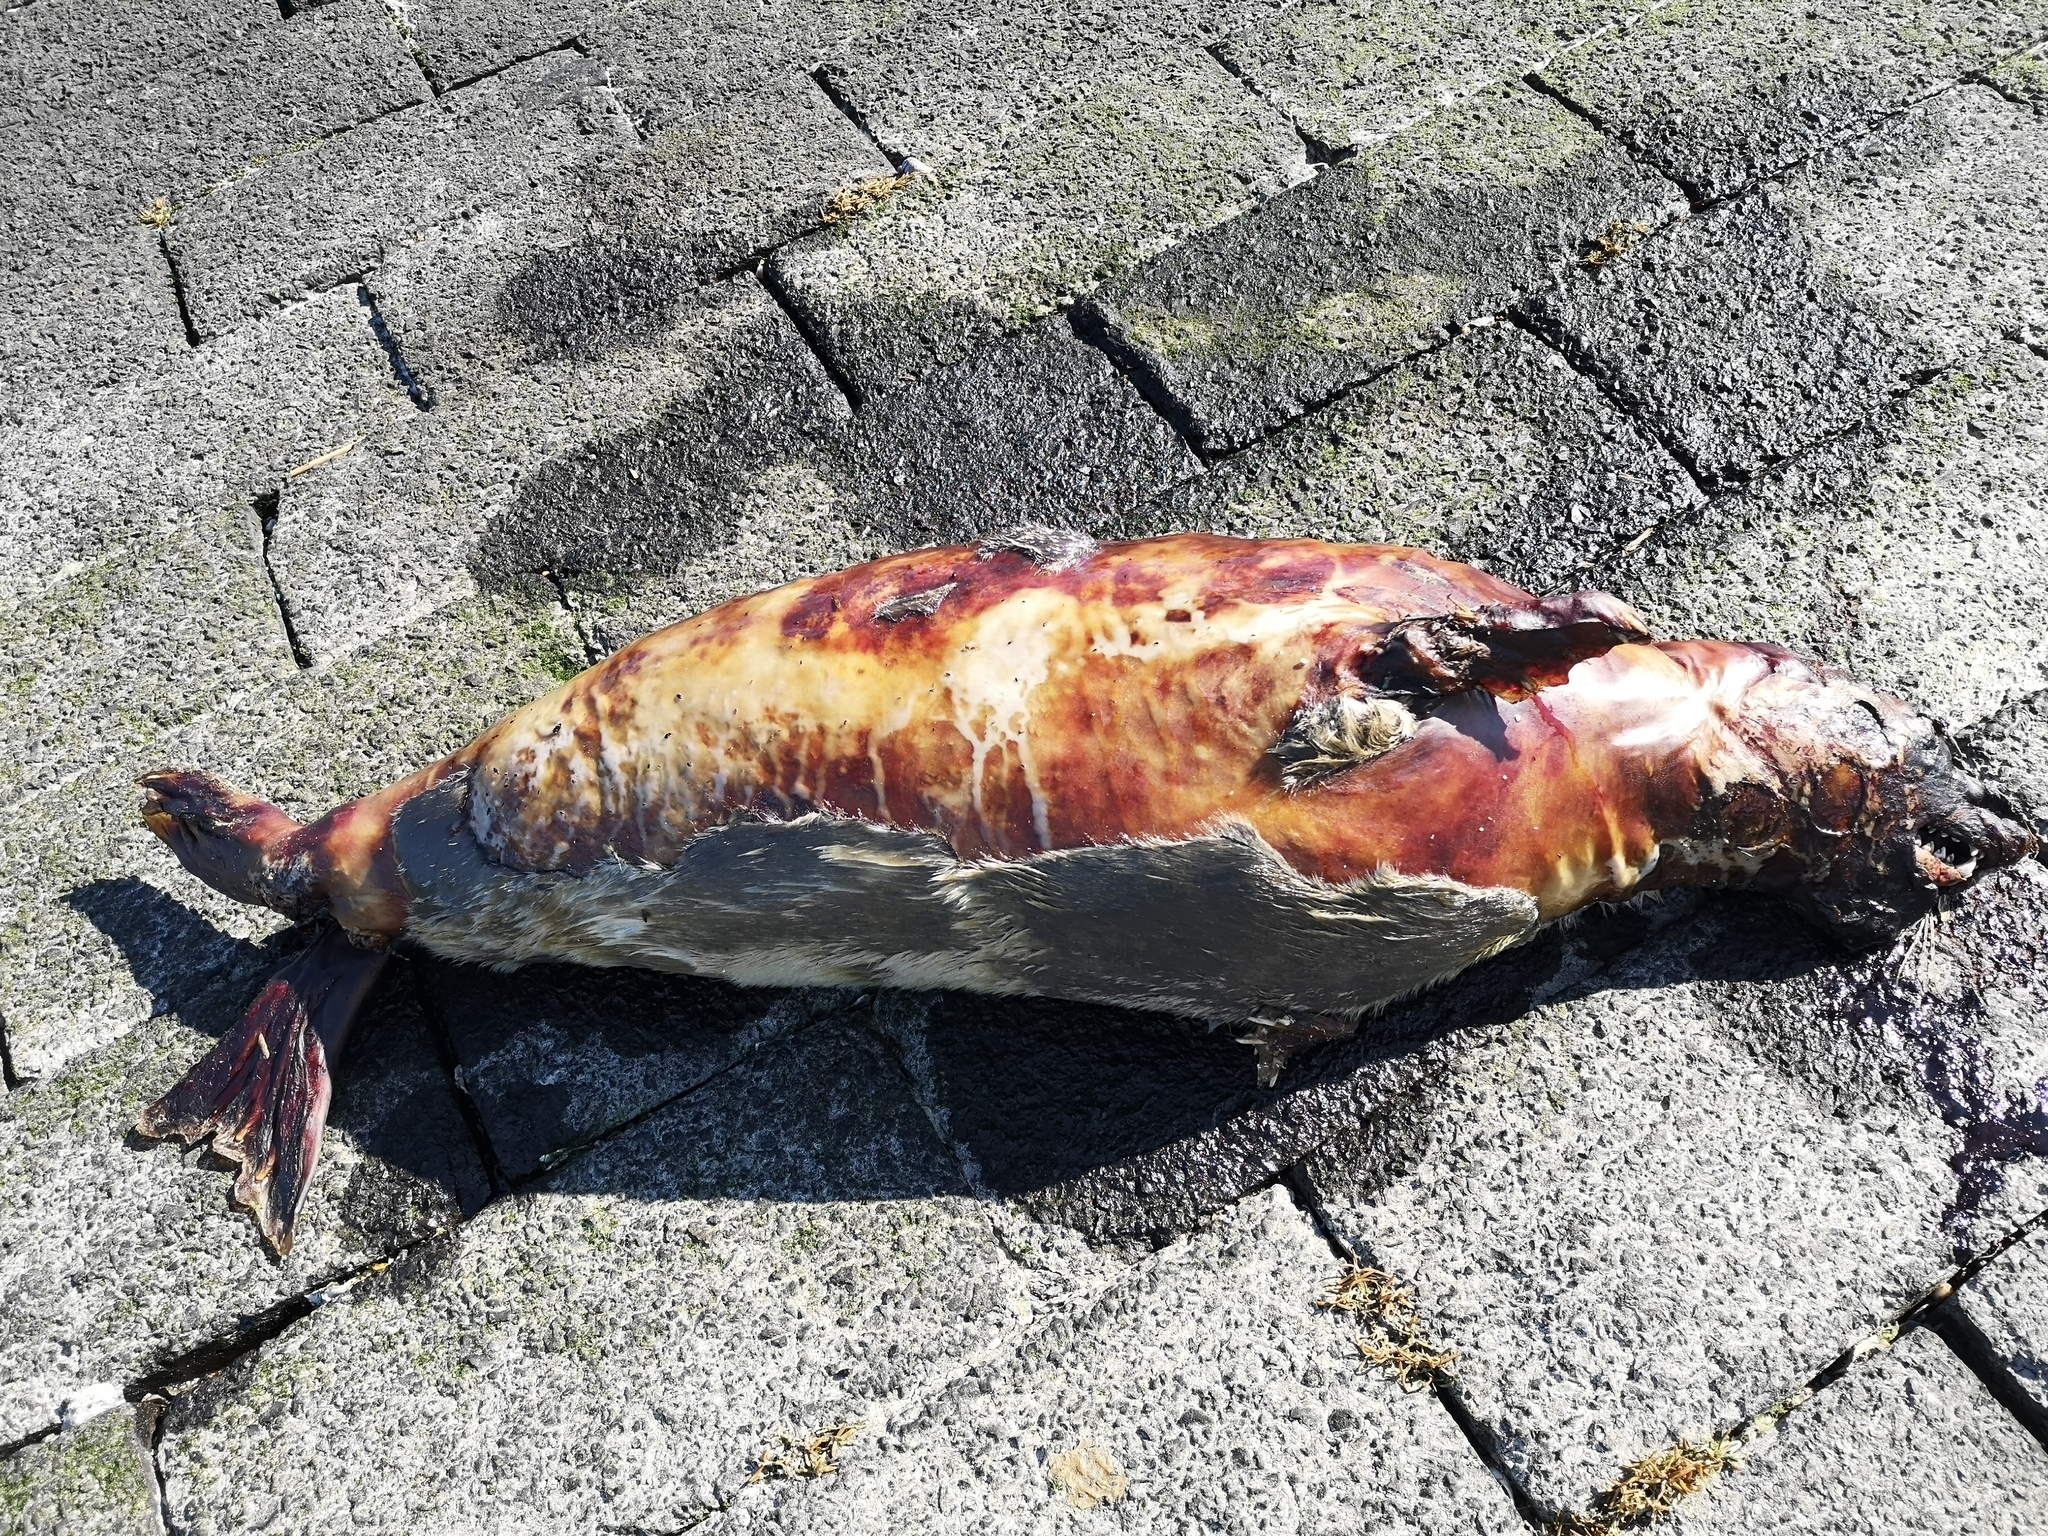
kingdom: Animalia
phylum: Chordata
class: Mammalia
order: Carnivora
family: Phocidae
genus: Phoca
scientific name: Phoca vitulina
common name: Harbor seal
